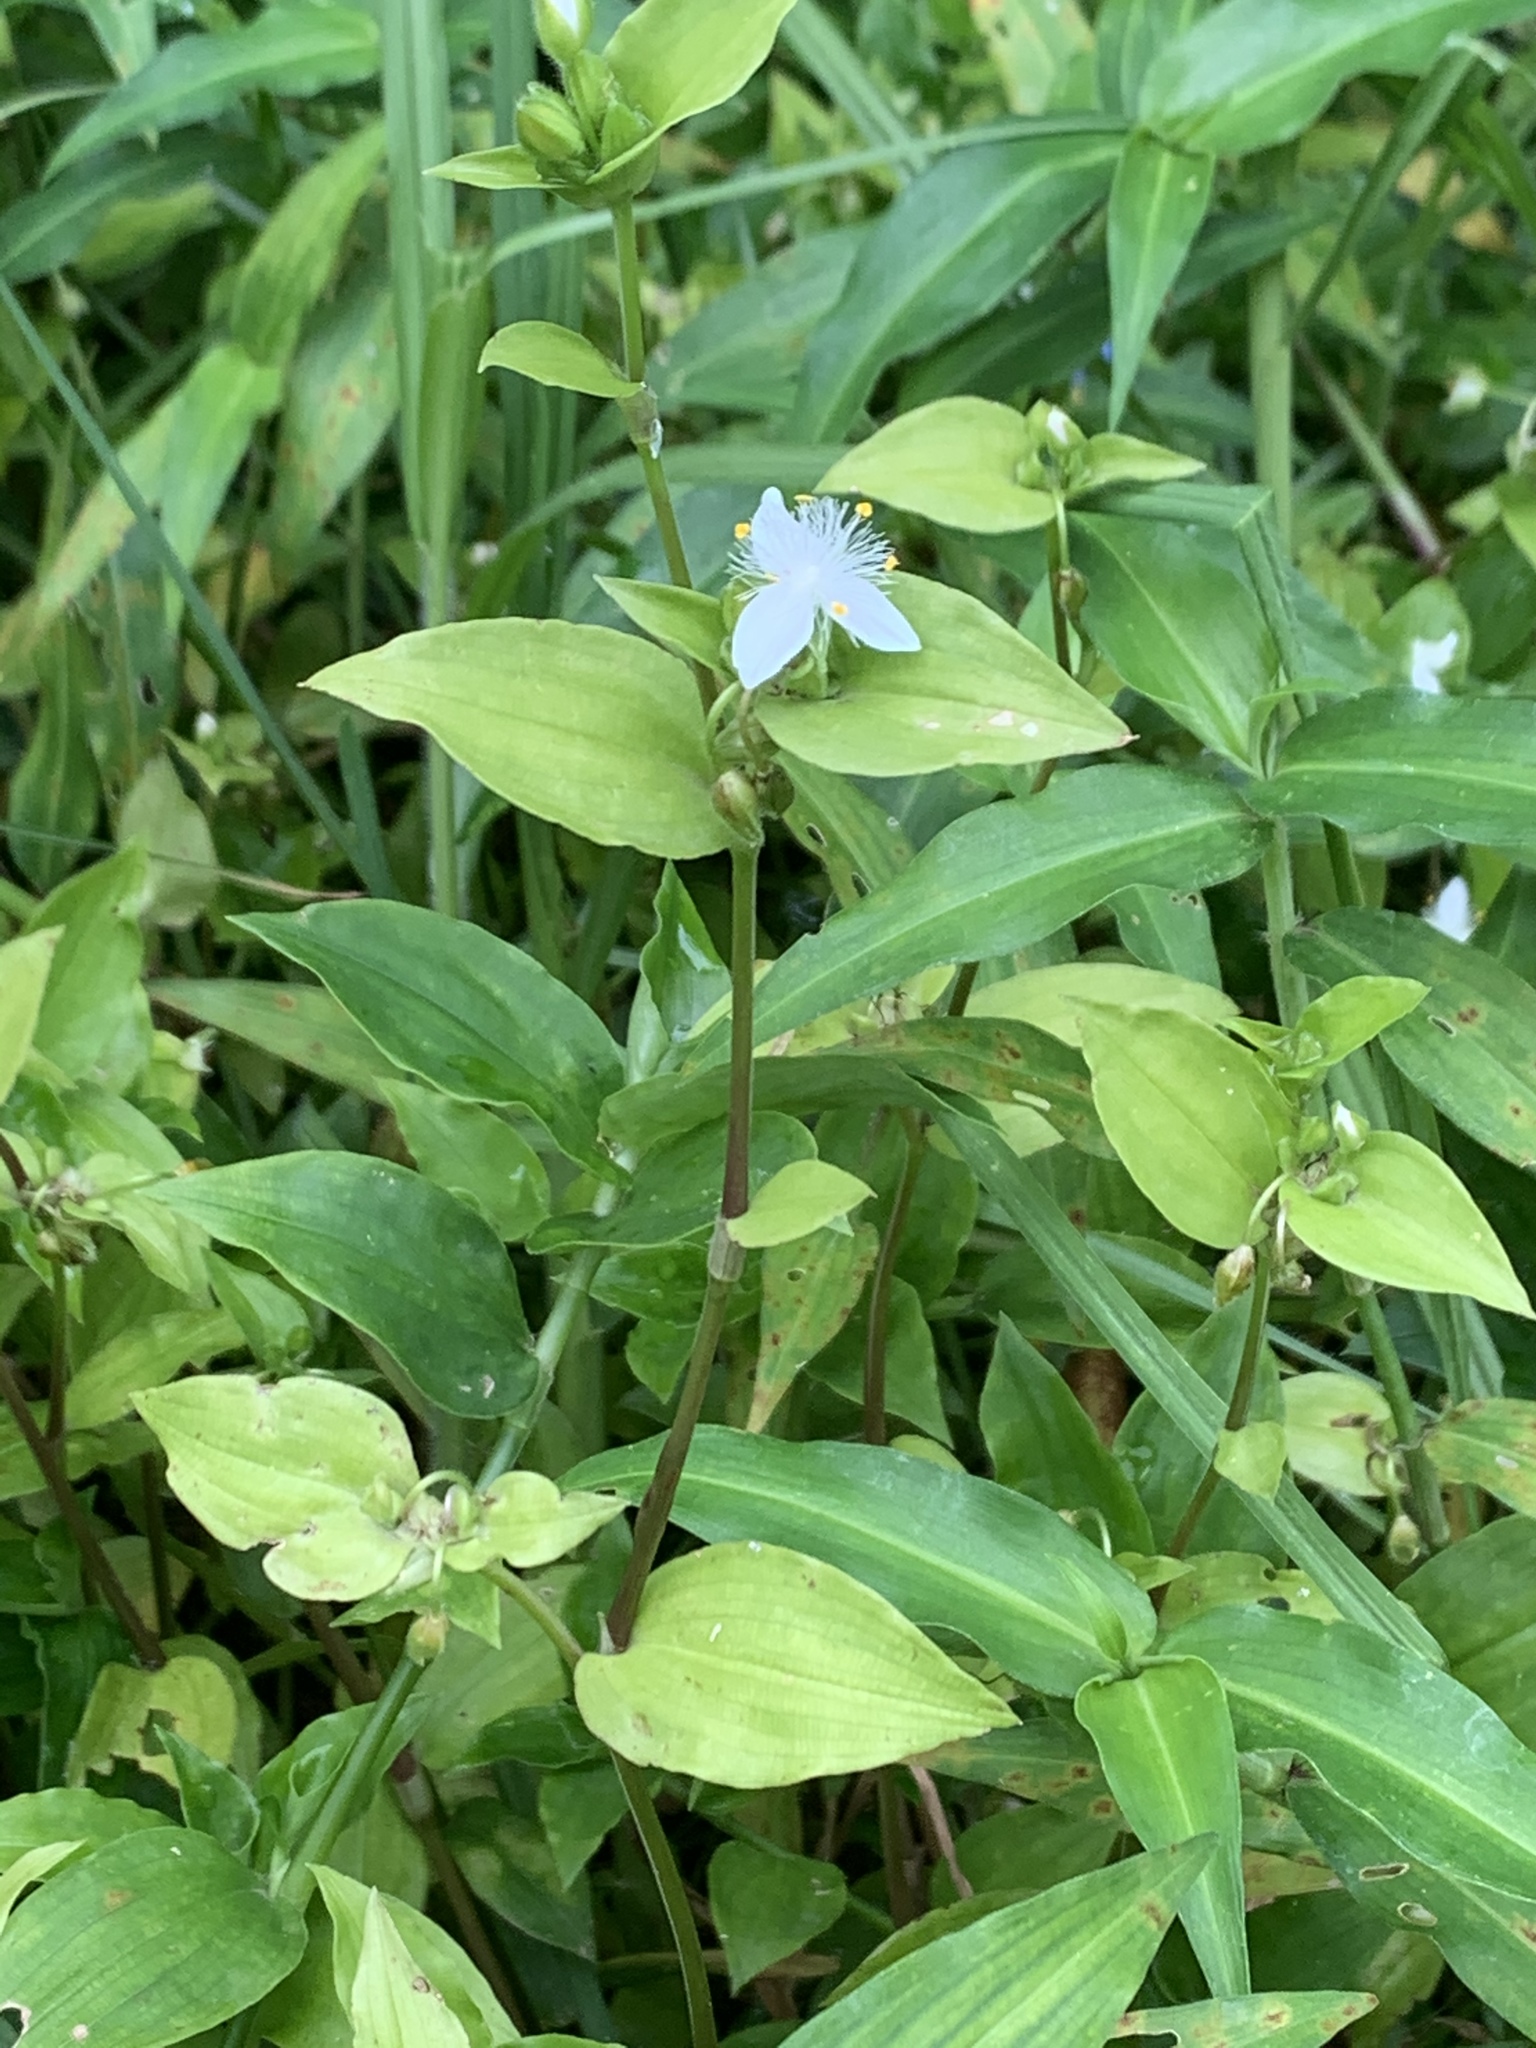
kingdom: Plantae
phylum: Tracheophyta
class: Liliopsida
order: Commelinales
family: Commelinaceae
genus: Tradescantia
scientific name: Tradescantia fluminensis
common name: Wandering-jew
